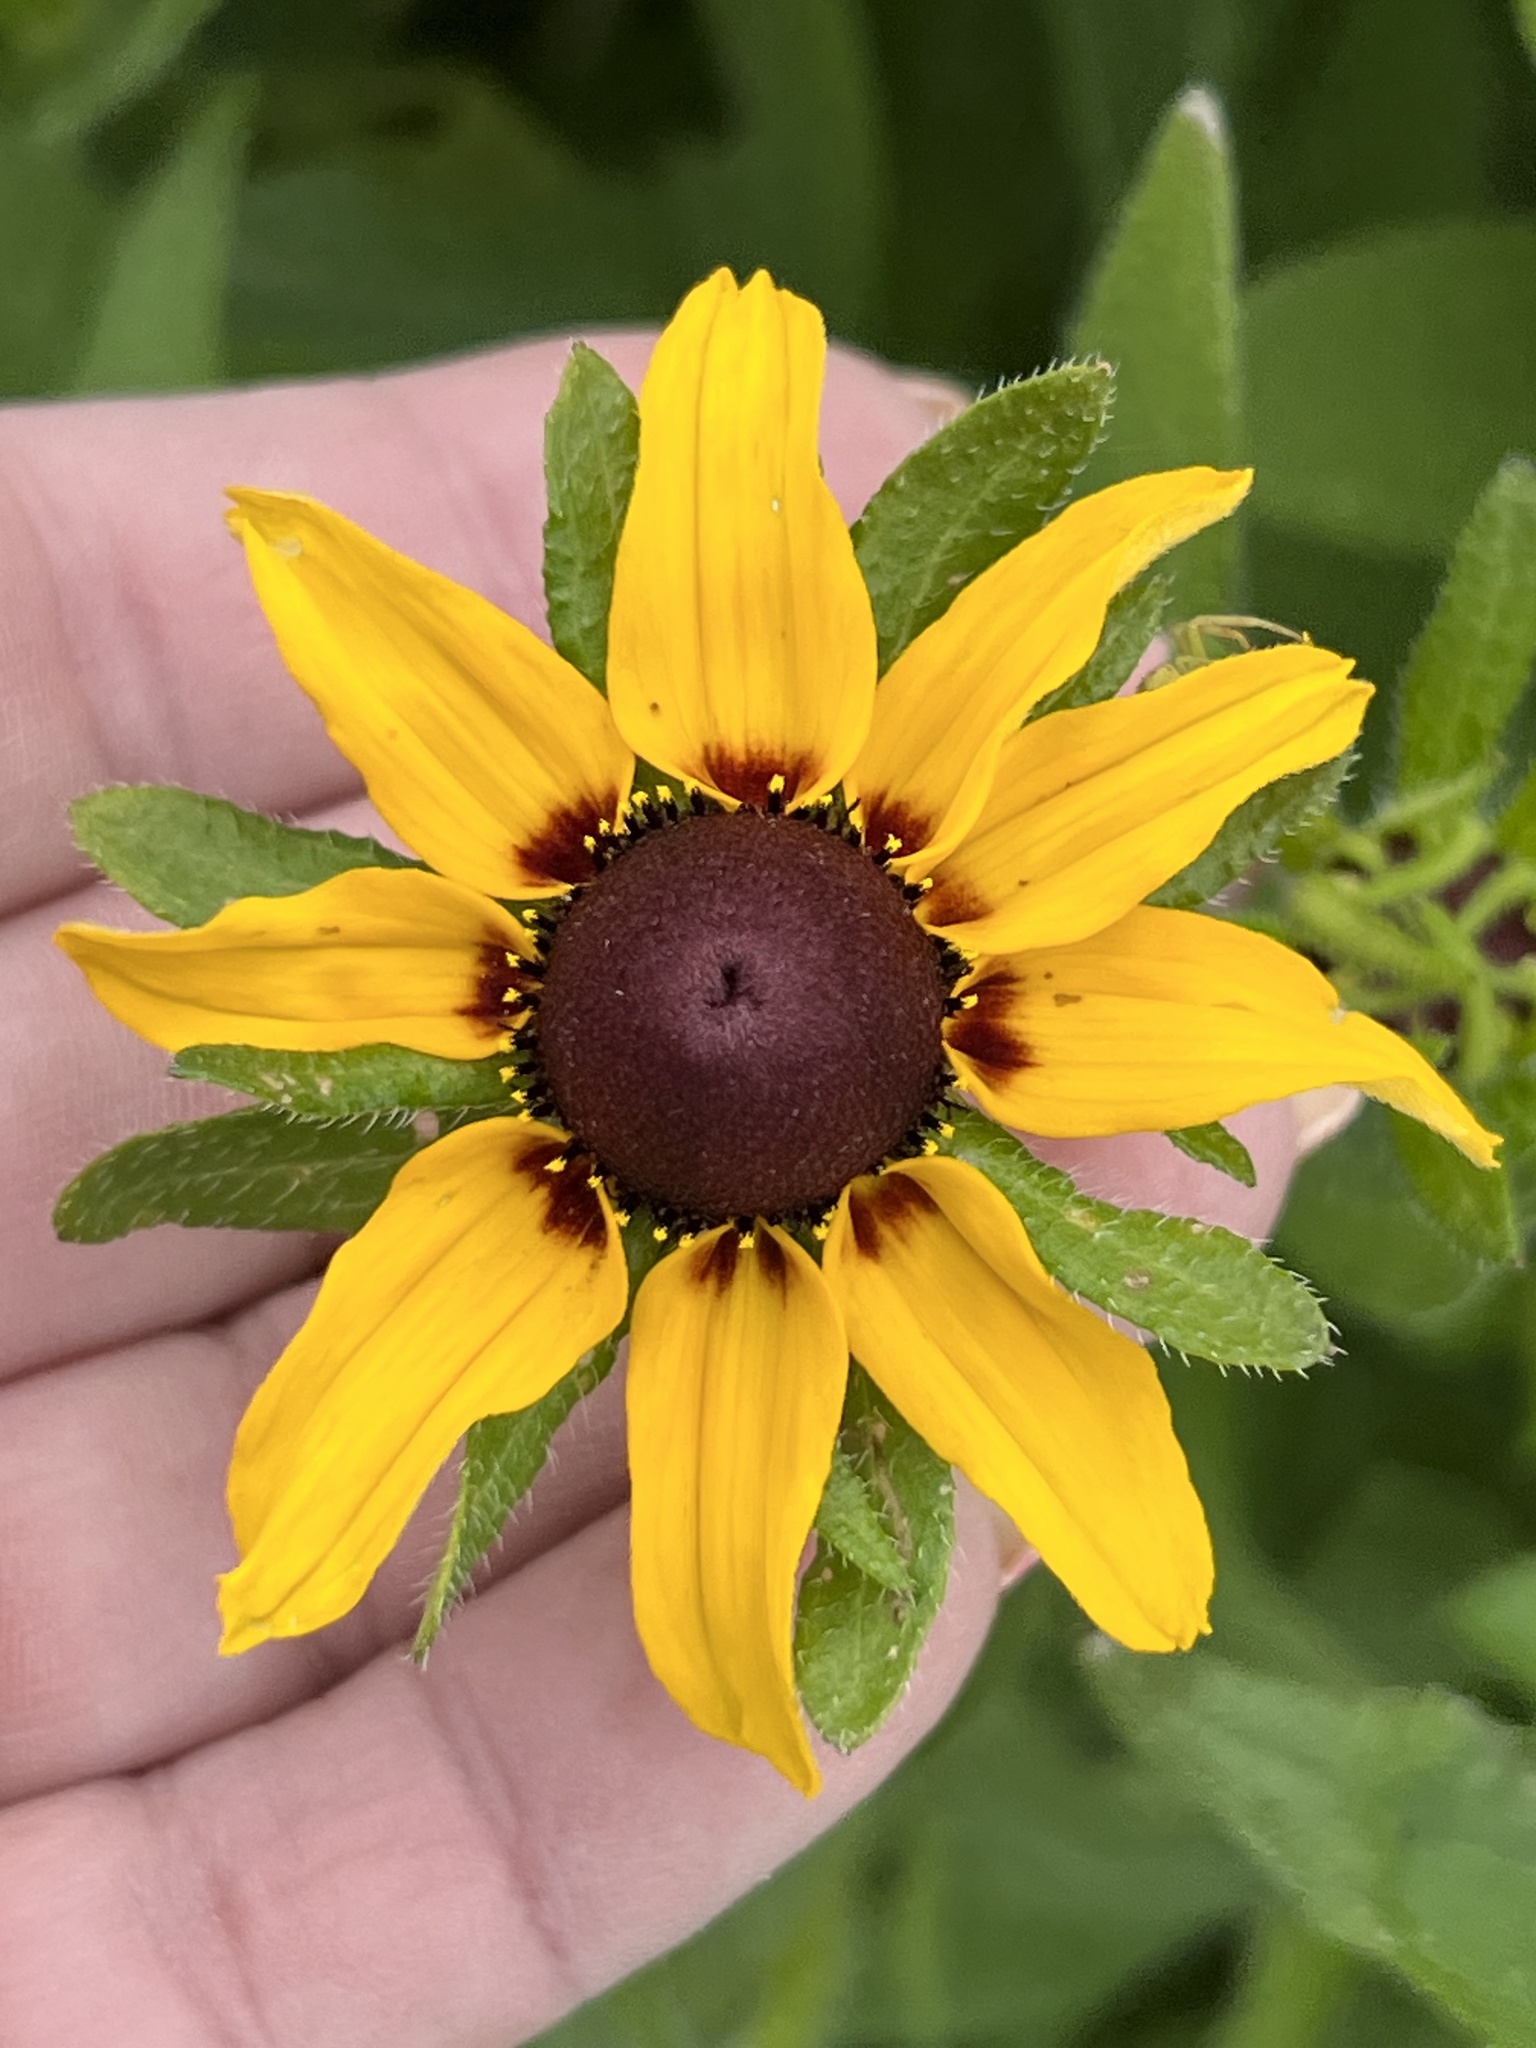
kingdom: Plantae
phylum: Tracheophyta
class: Magnoliopsida
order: Asterales
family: Asteraceae
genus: Rudbeckia
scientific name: Rudbeckia hirta
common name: Black-eyed-susan
